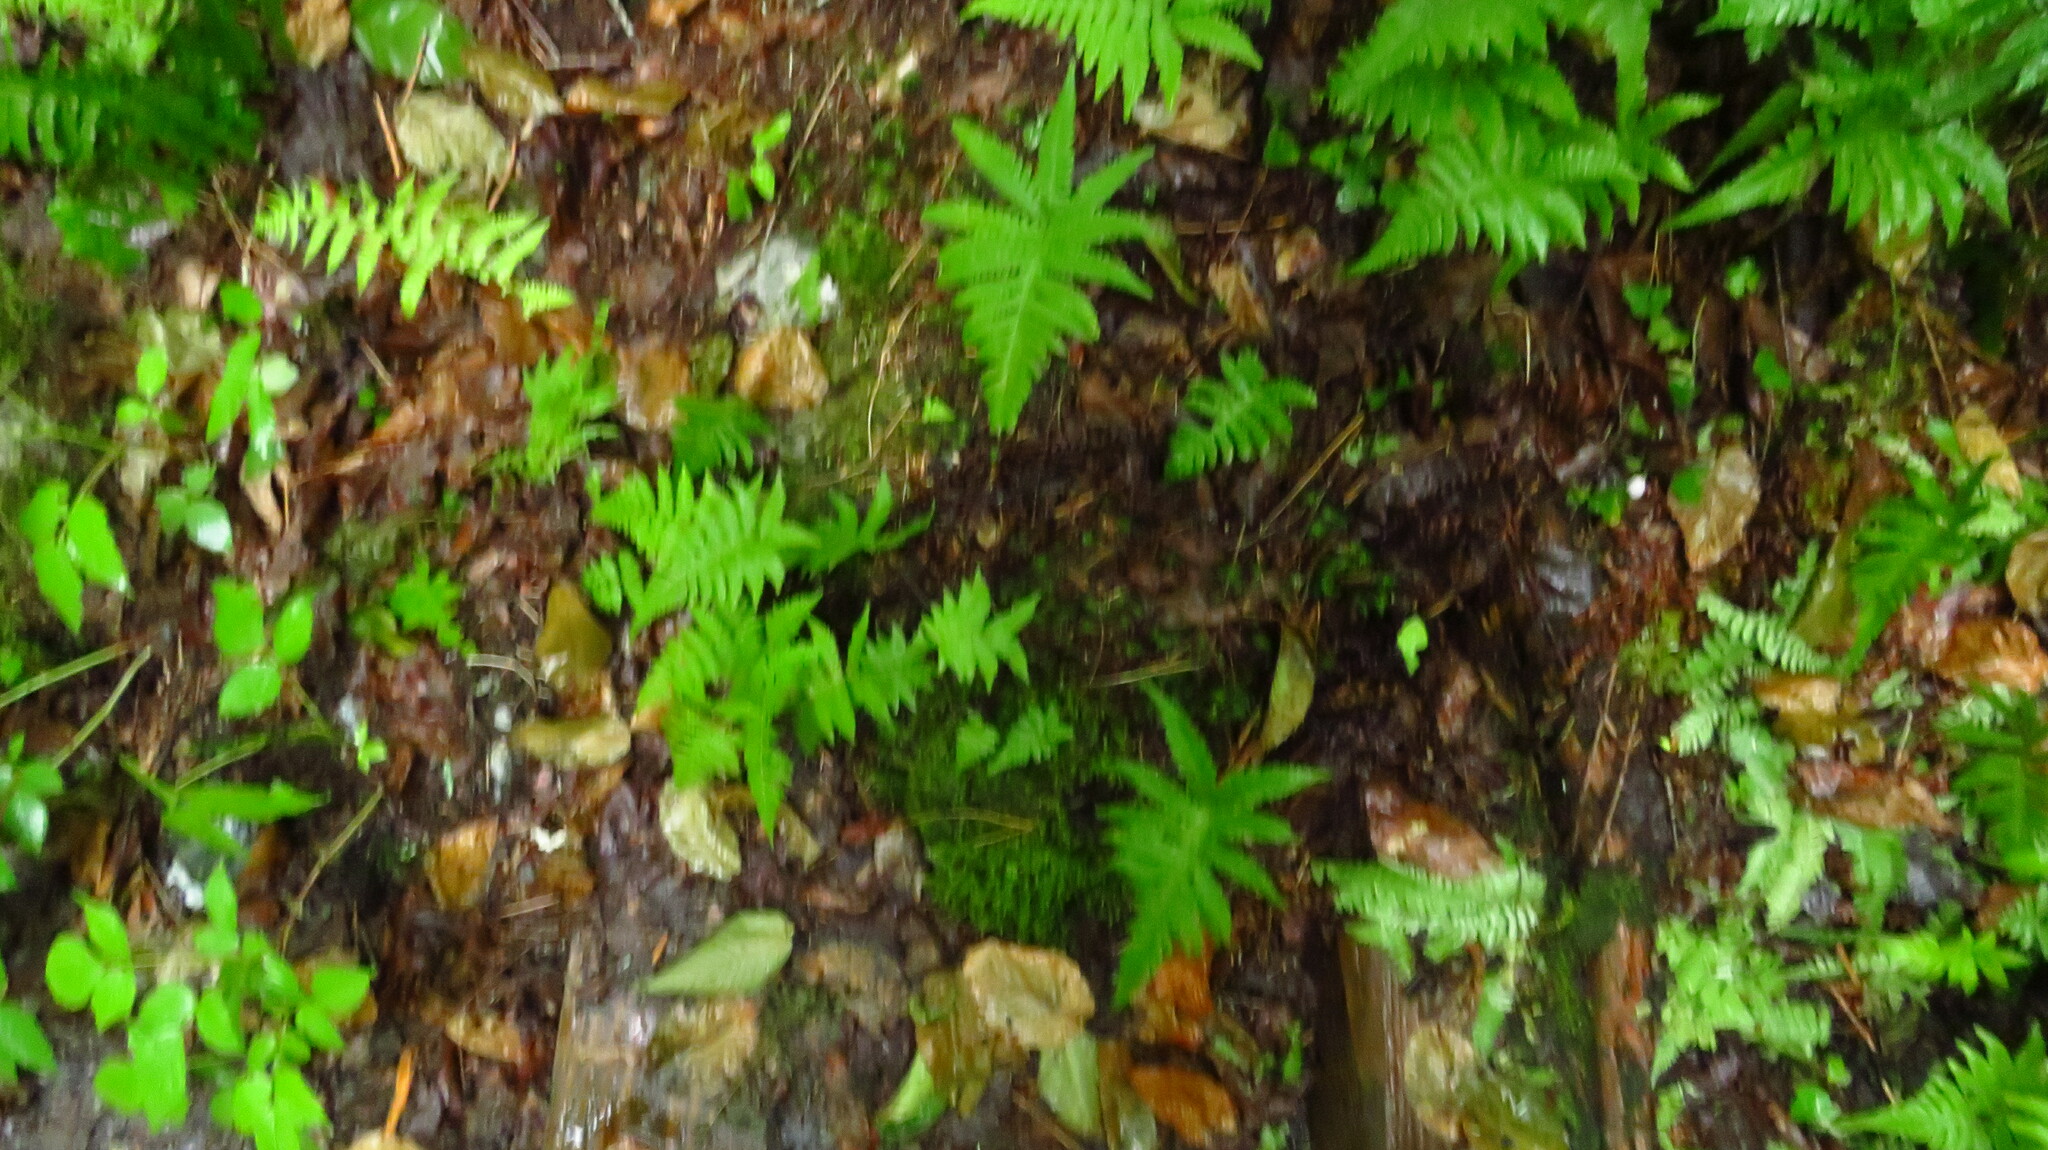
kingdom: Plantae
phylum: Tracheophyta
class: Polypodiopsida
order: Polypodiales
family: Thelypteridaceae
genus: Phegopteris
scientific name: Phegopteris connectilis
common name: Beech fern
